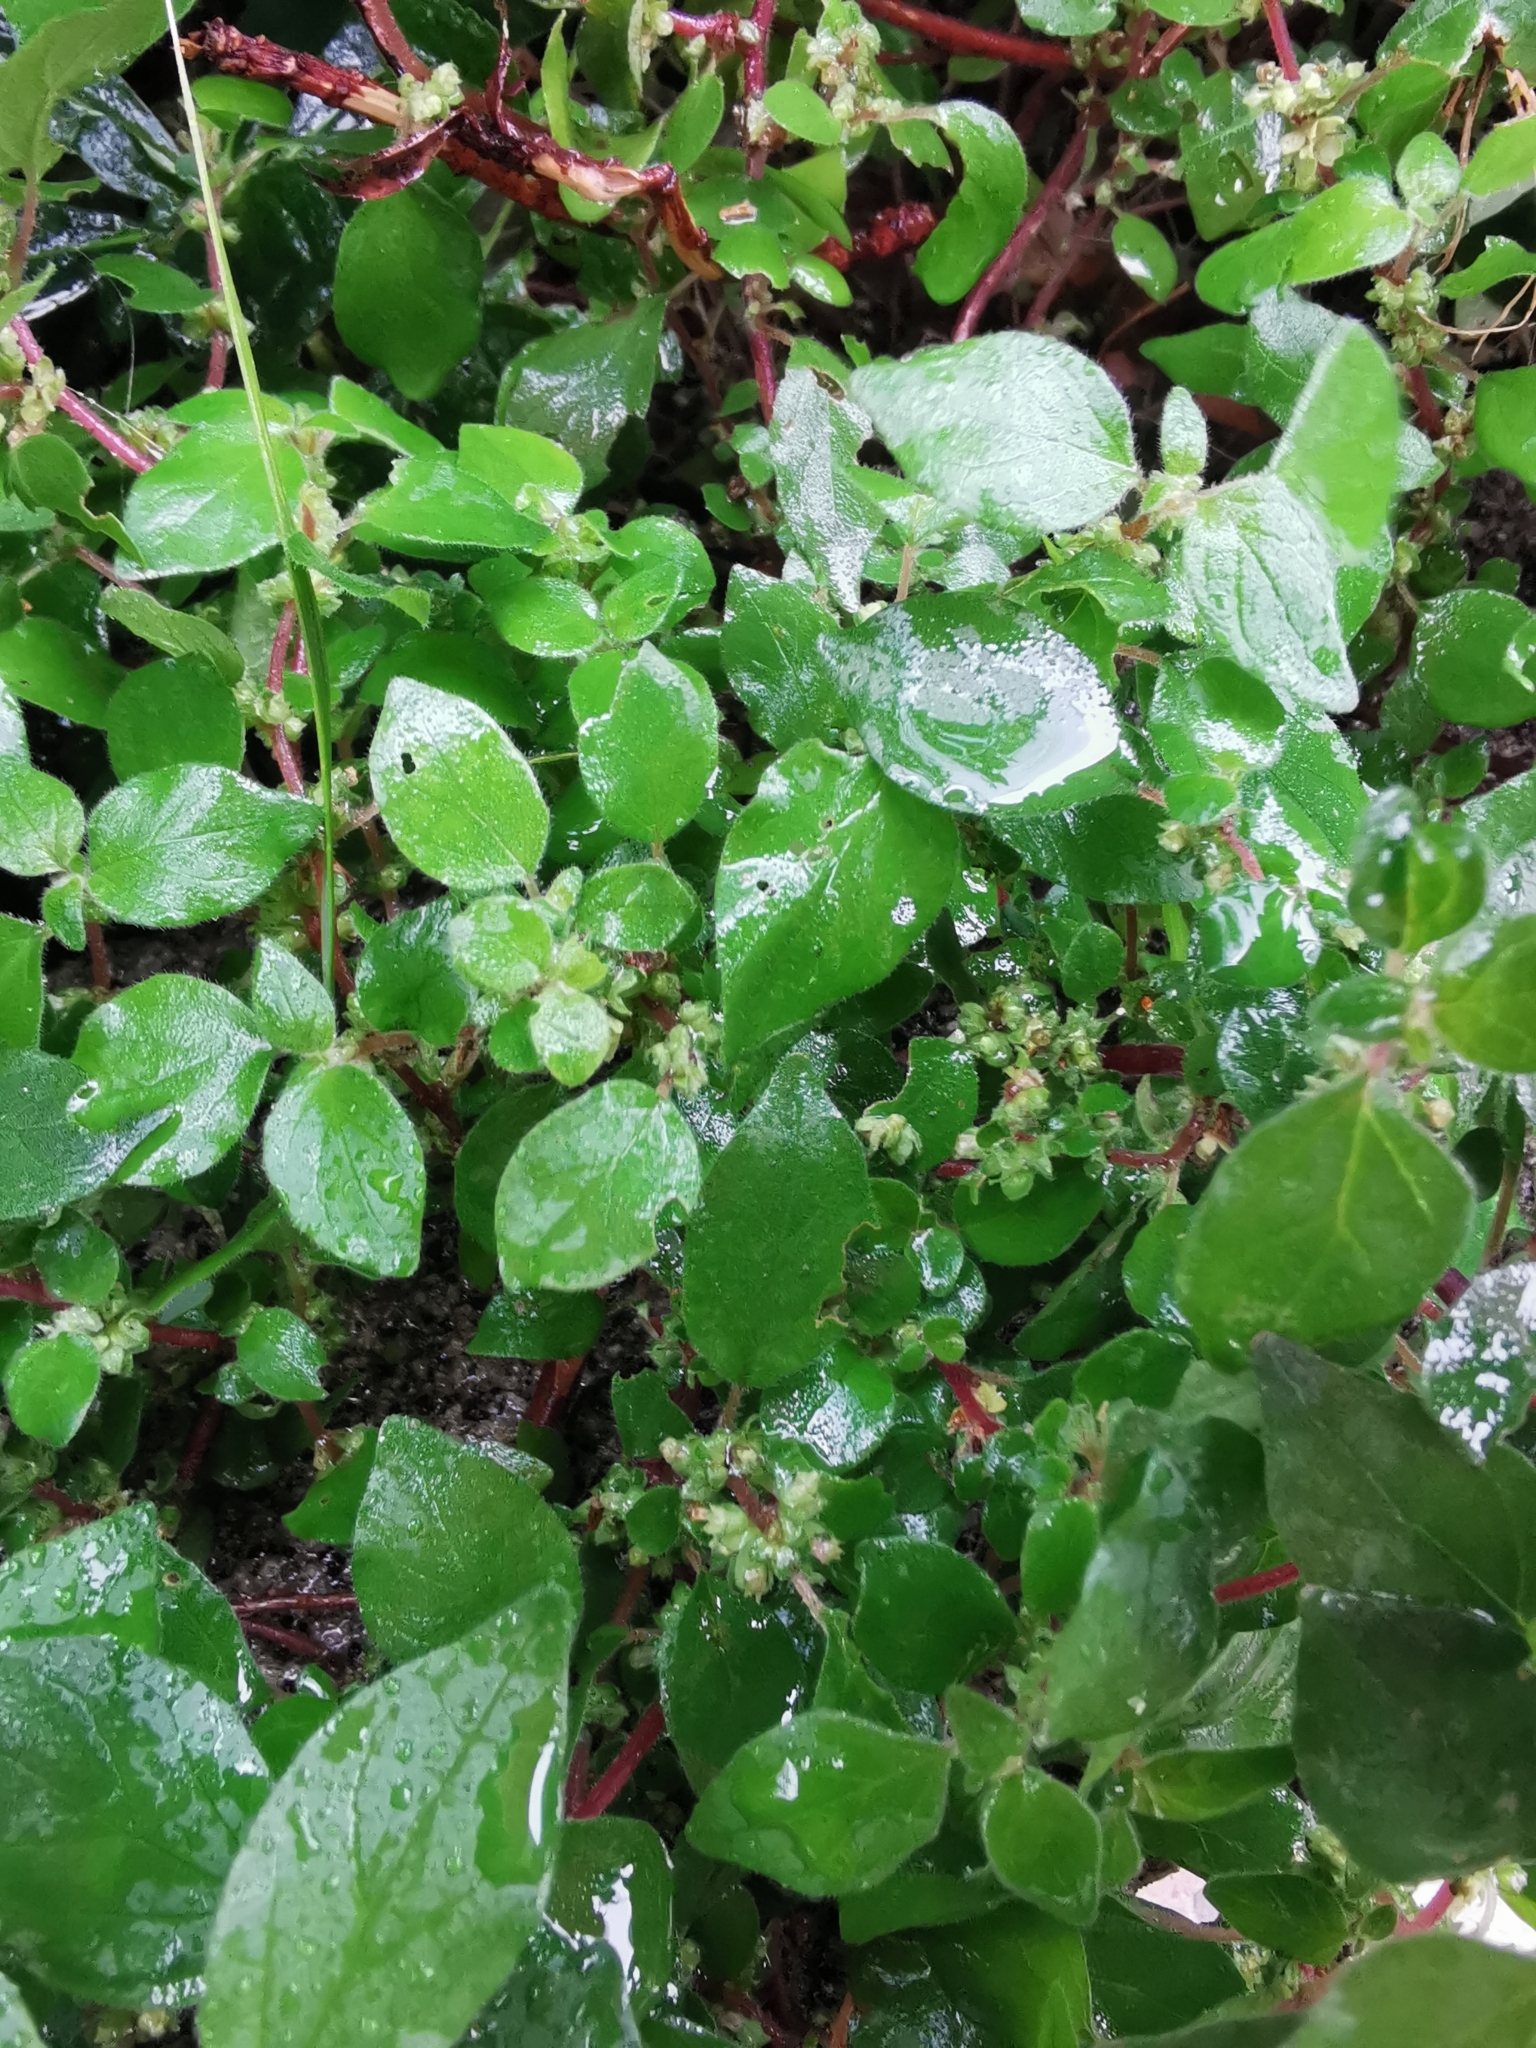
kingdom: Plantae
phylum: Tracheophyta
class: Magnoliopsida
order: Rosales
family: Urticaceae
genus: Parietaria
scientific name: Parietaria judaica
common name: Pellitory-of-the-wall
